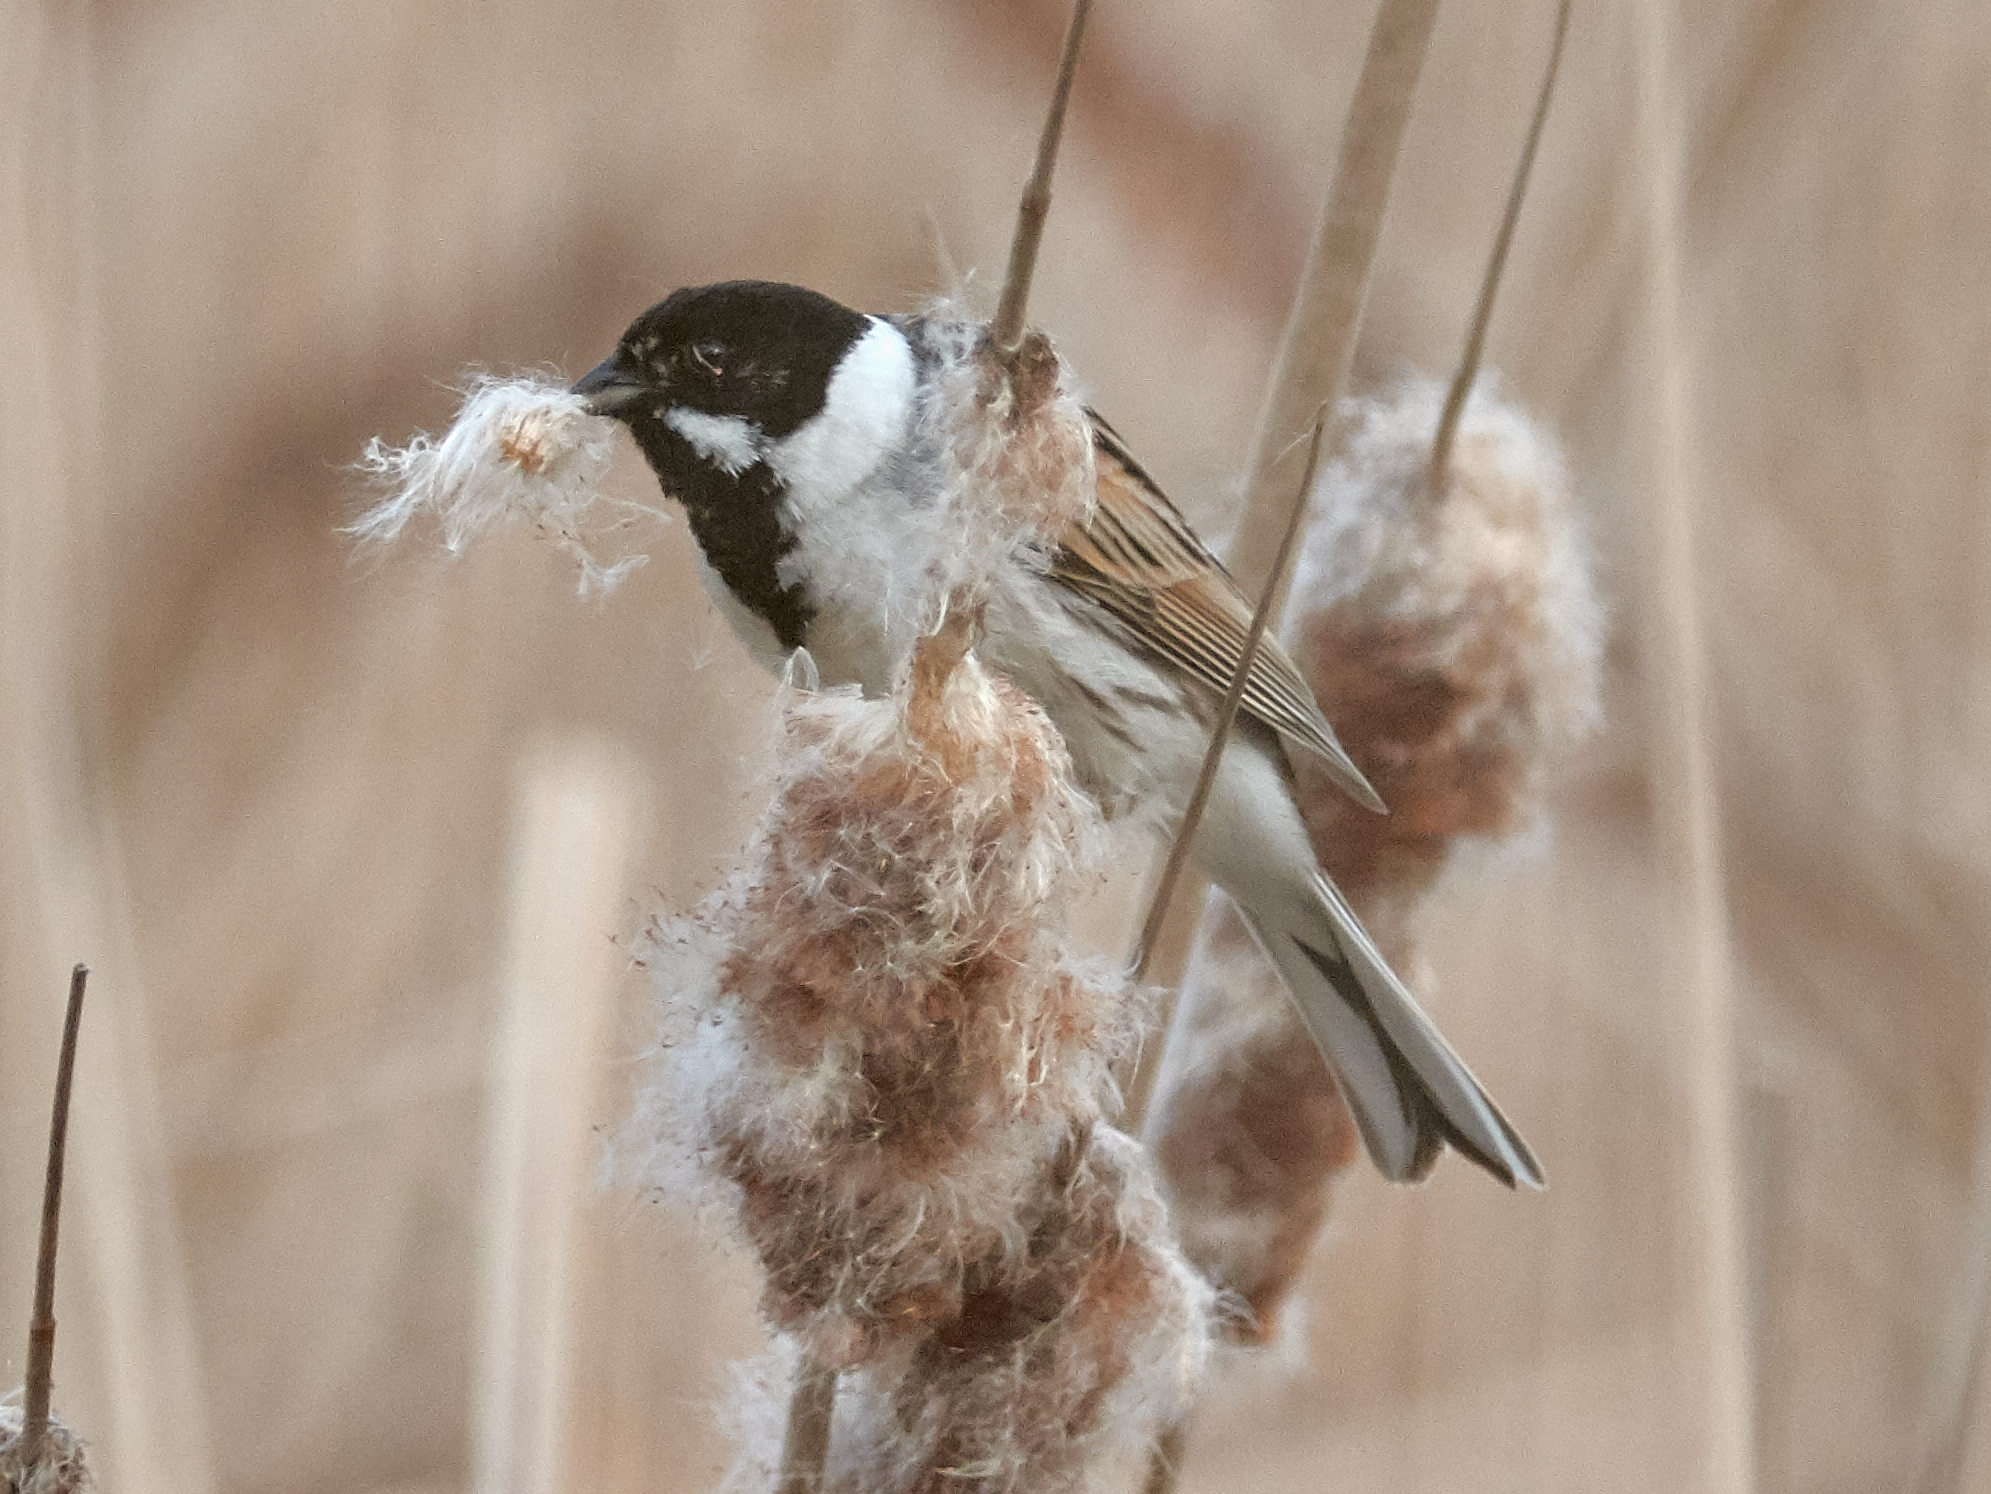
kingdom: Animalia
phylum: Chordata
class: Aves
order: Passeriformes
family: Emberizidae
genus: Emberiza
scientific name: Emberiza schoeniclus
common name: Reed bunting
